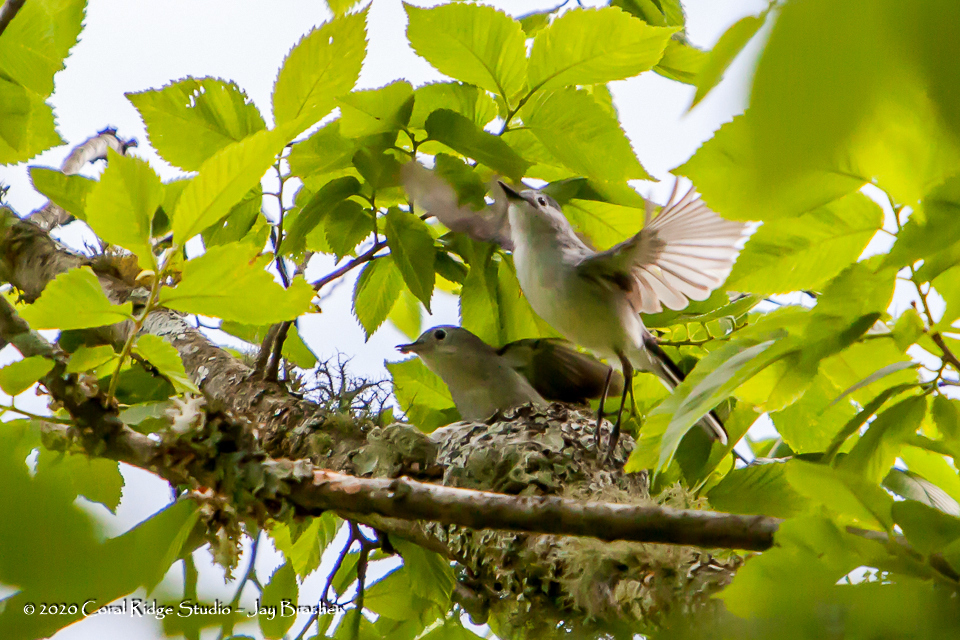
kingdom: Animalia
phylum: Chordata
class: Aves
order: Passeriformes
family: Polioptilidae
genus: Polioptila
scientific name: Polioptila caerulea
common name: Blue-gray gnatcatcher
